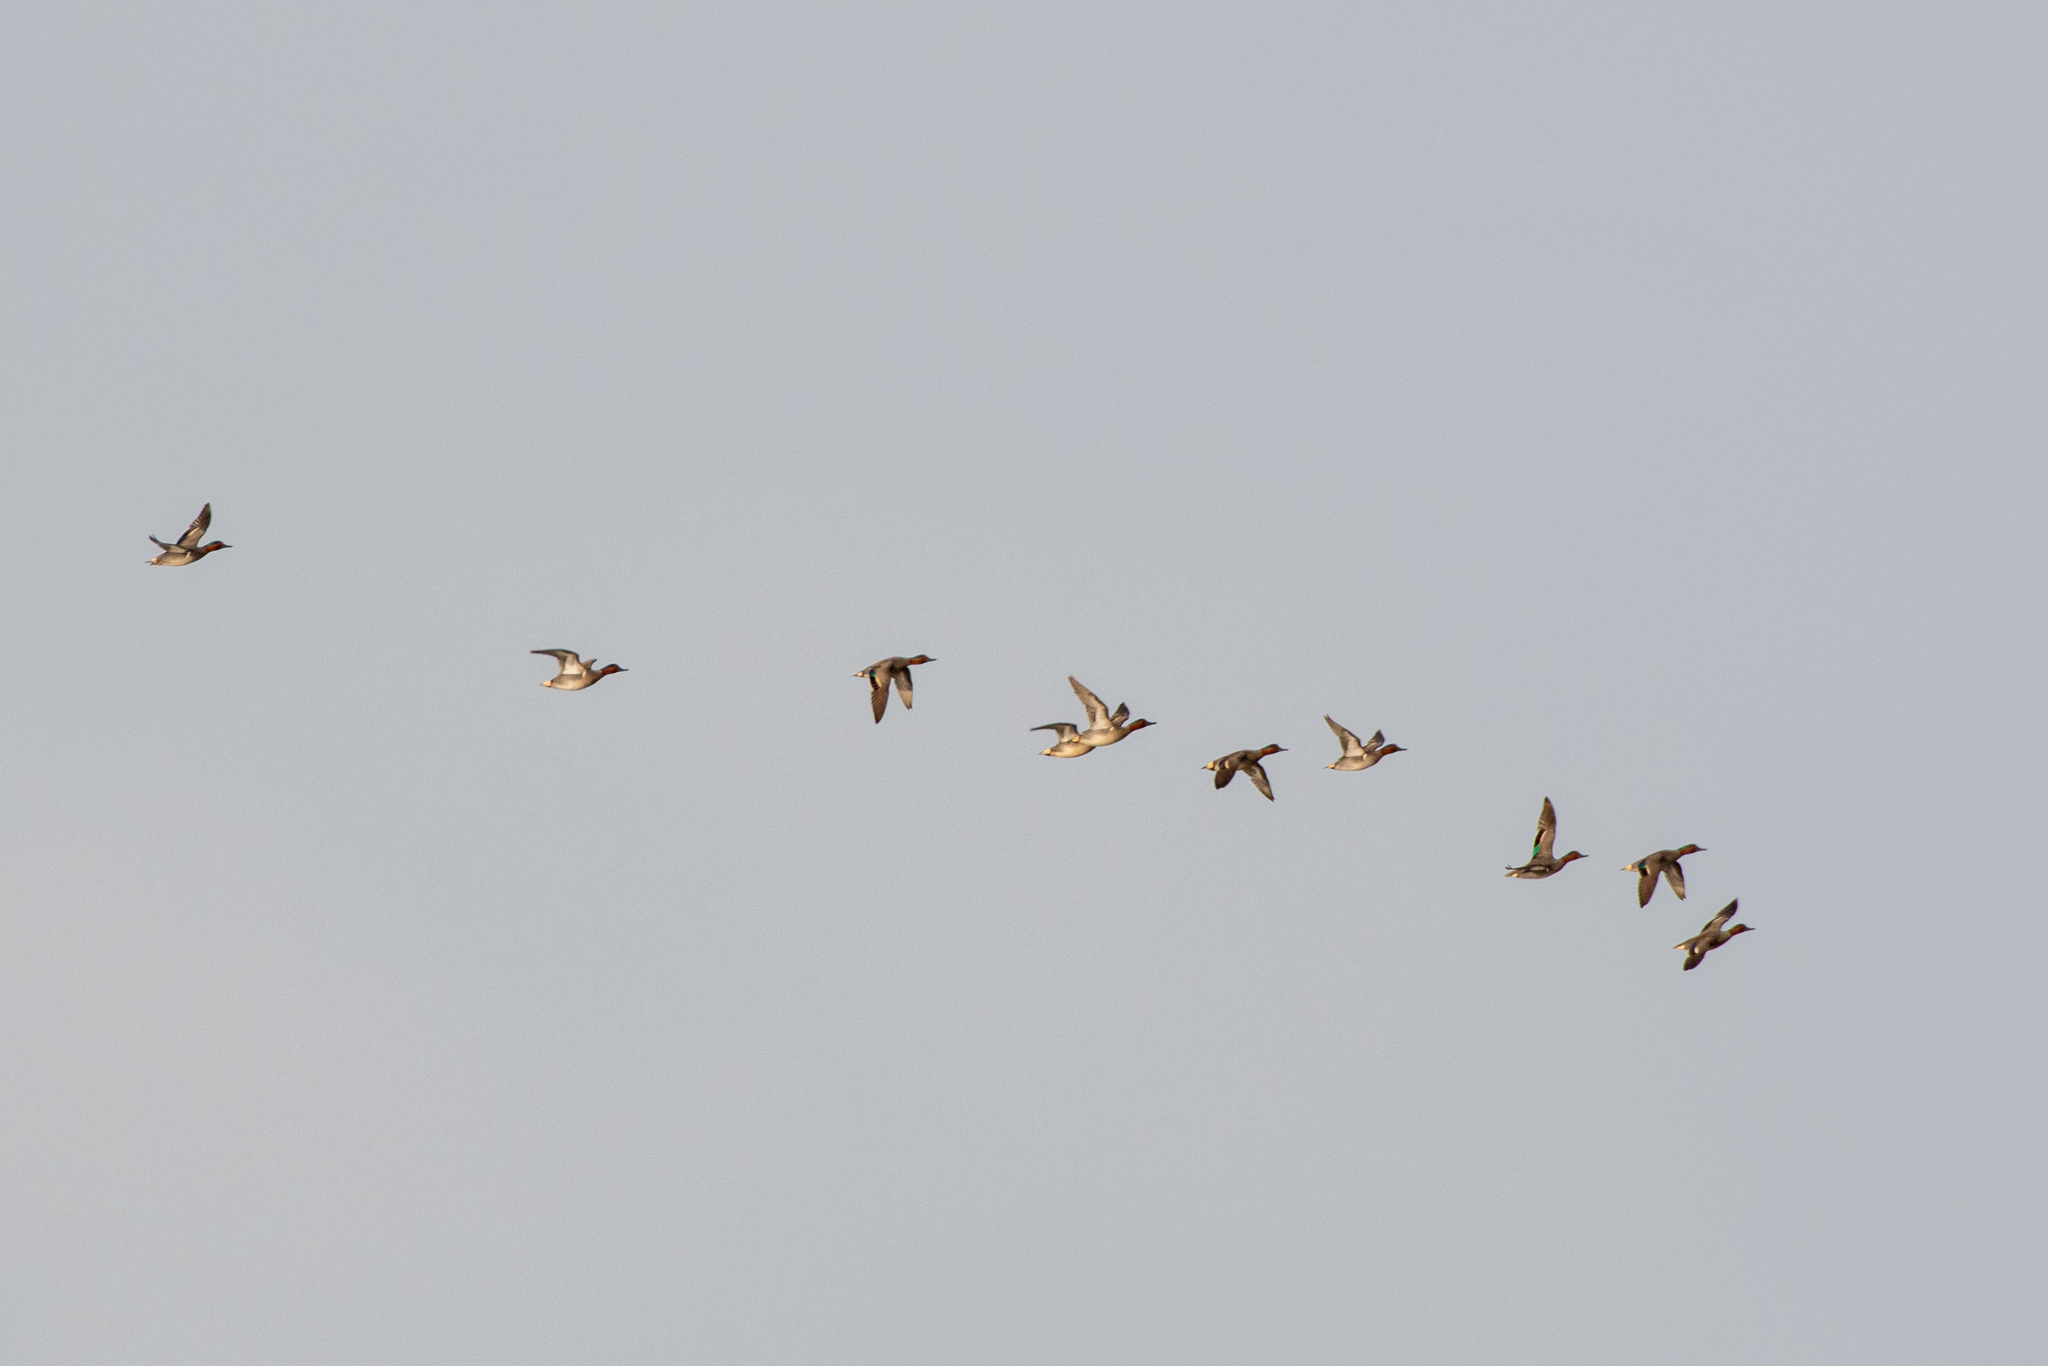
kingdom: Animalia
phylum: Chordata
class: Aves
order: Anseriformes
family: Anatidae
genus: Anas
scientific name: Anas crecca
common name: Eurasian teal
